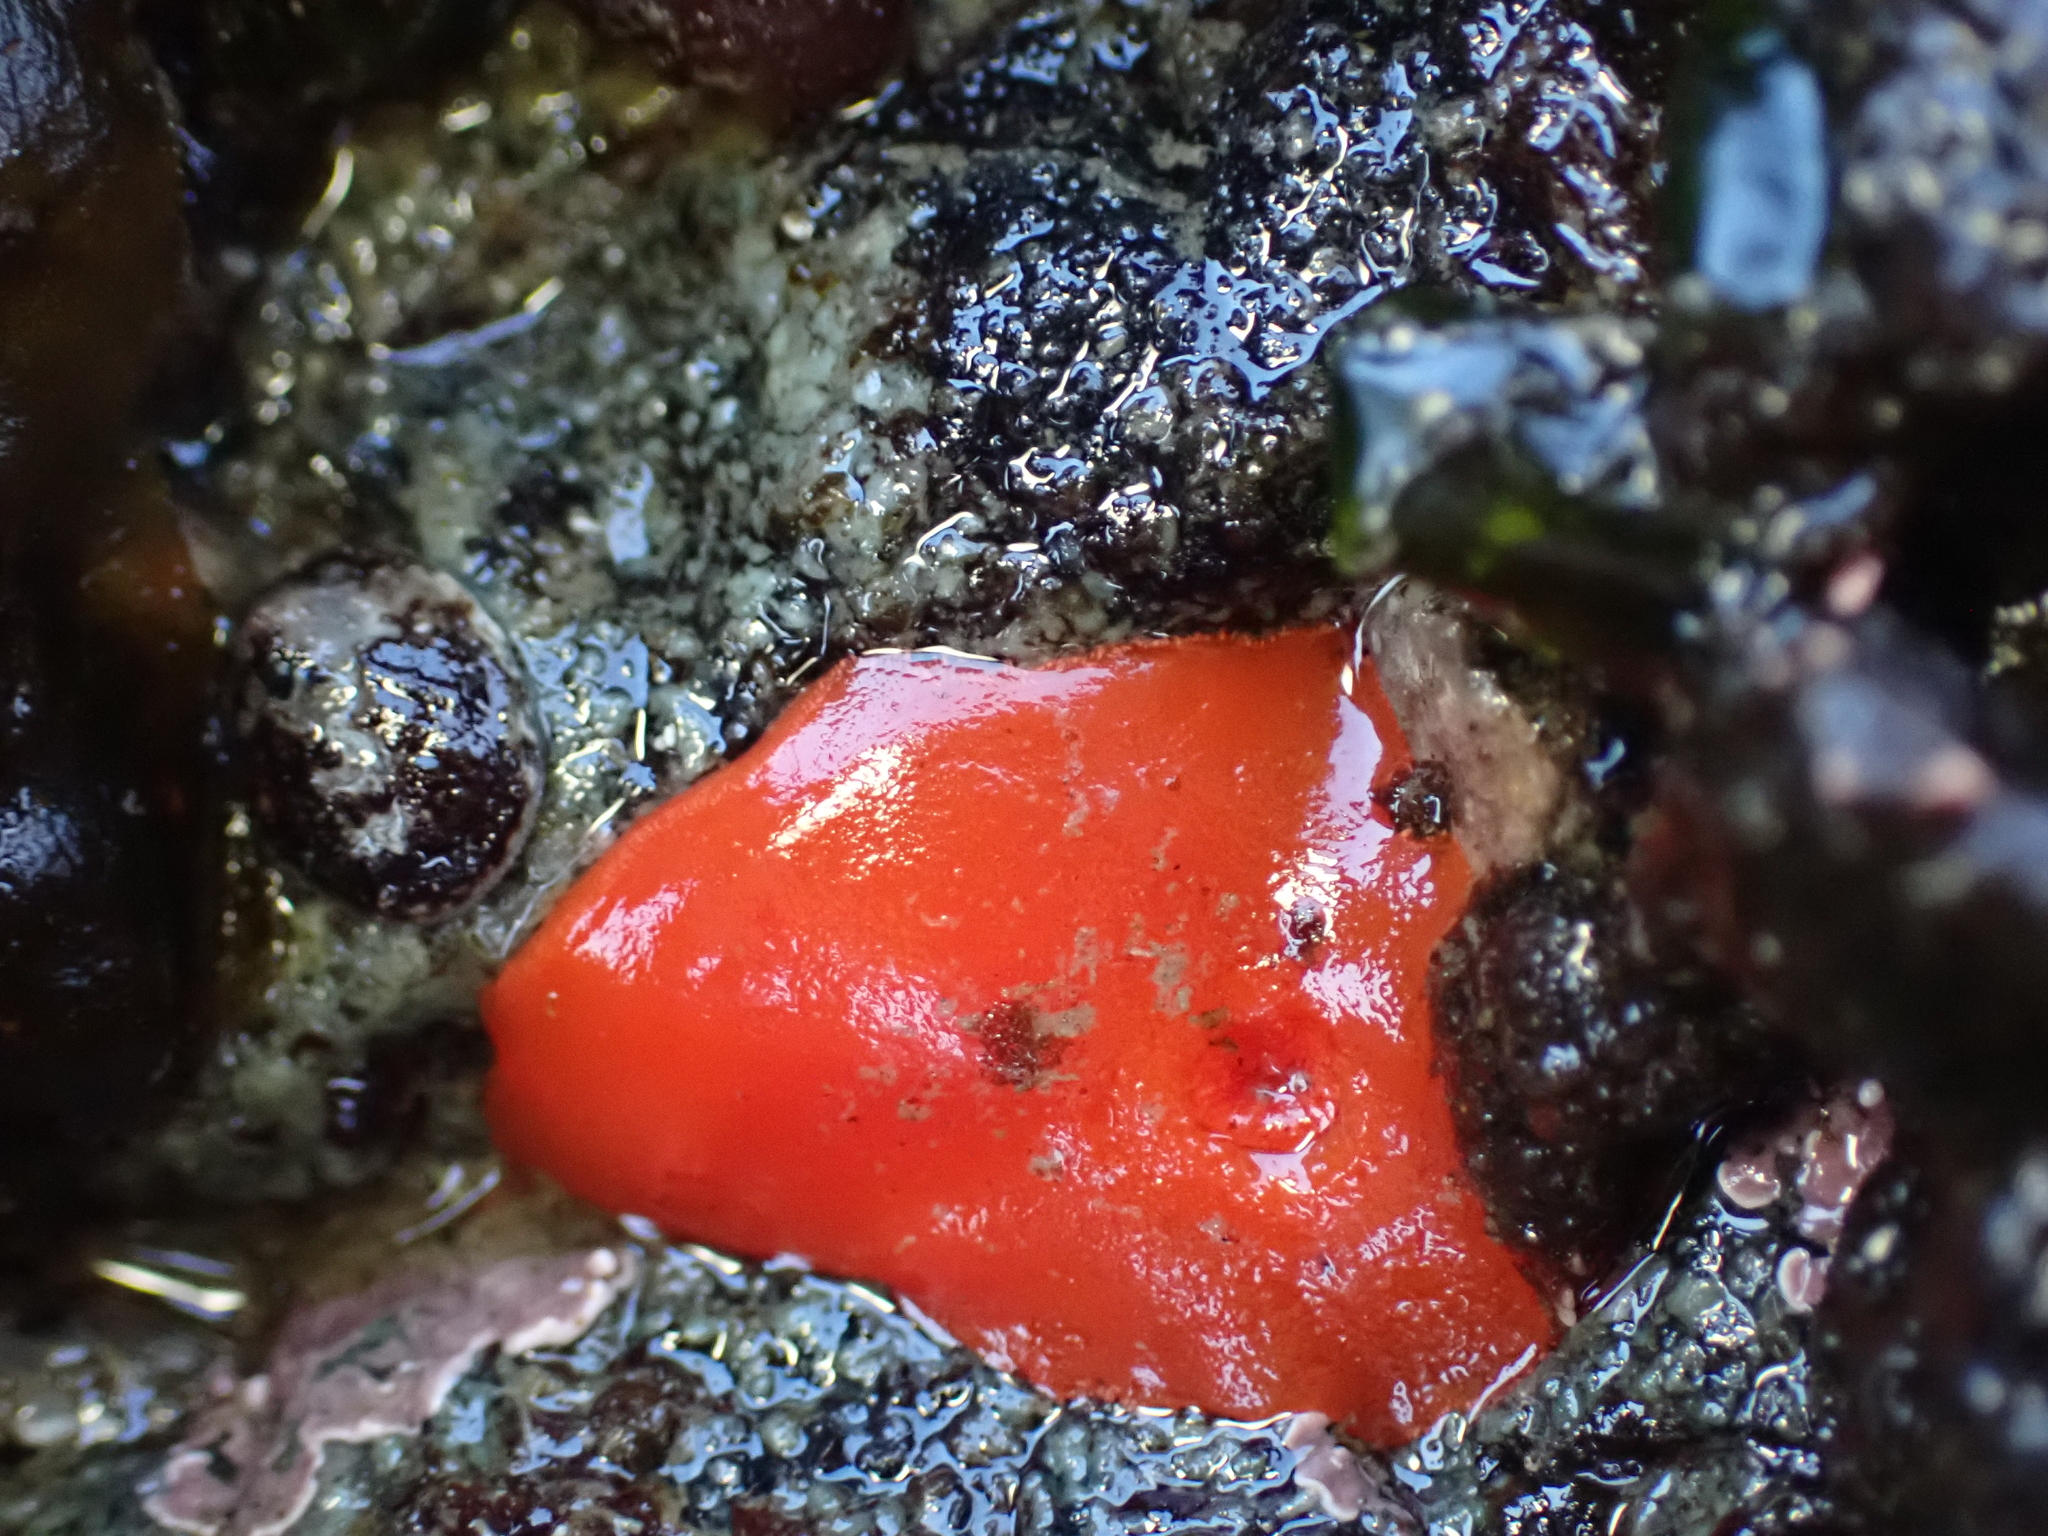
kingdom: Animalia
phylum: Mollusca
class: Gastropoda
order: Nudibranchia
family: Discodorididae
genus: Rostanga
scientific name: Rostanga pulchra
